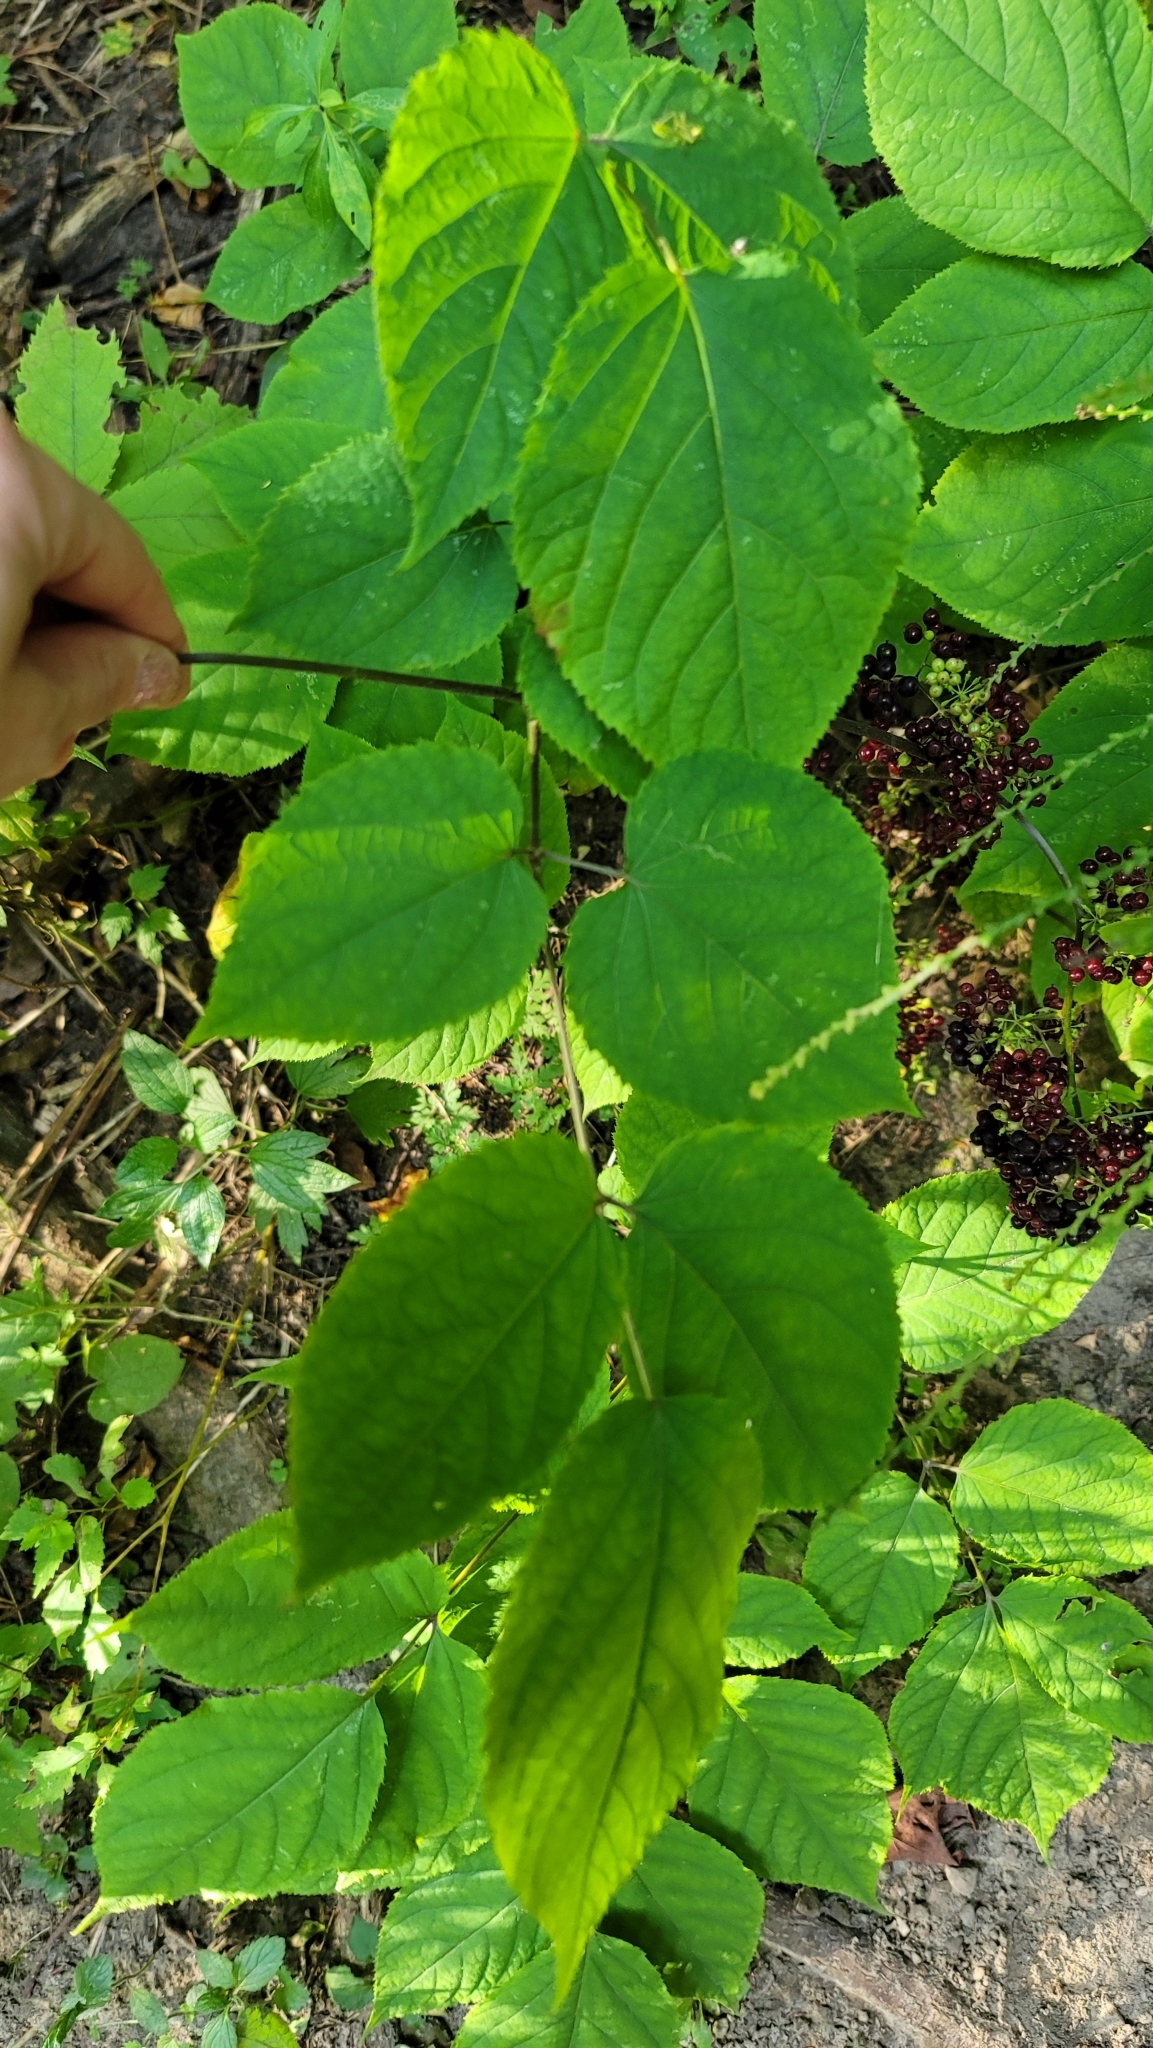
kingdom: Plantae
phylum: Tracheophyta
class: Magnoliopsida
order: Apiales
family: Araliaceae
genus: Aralia
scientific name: Aralia racemosa
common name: American-spikenard
